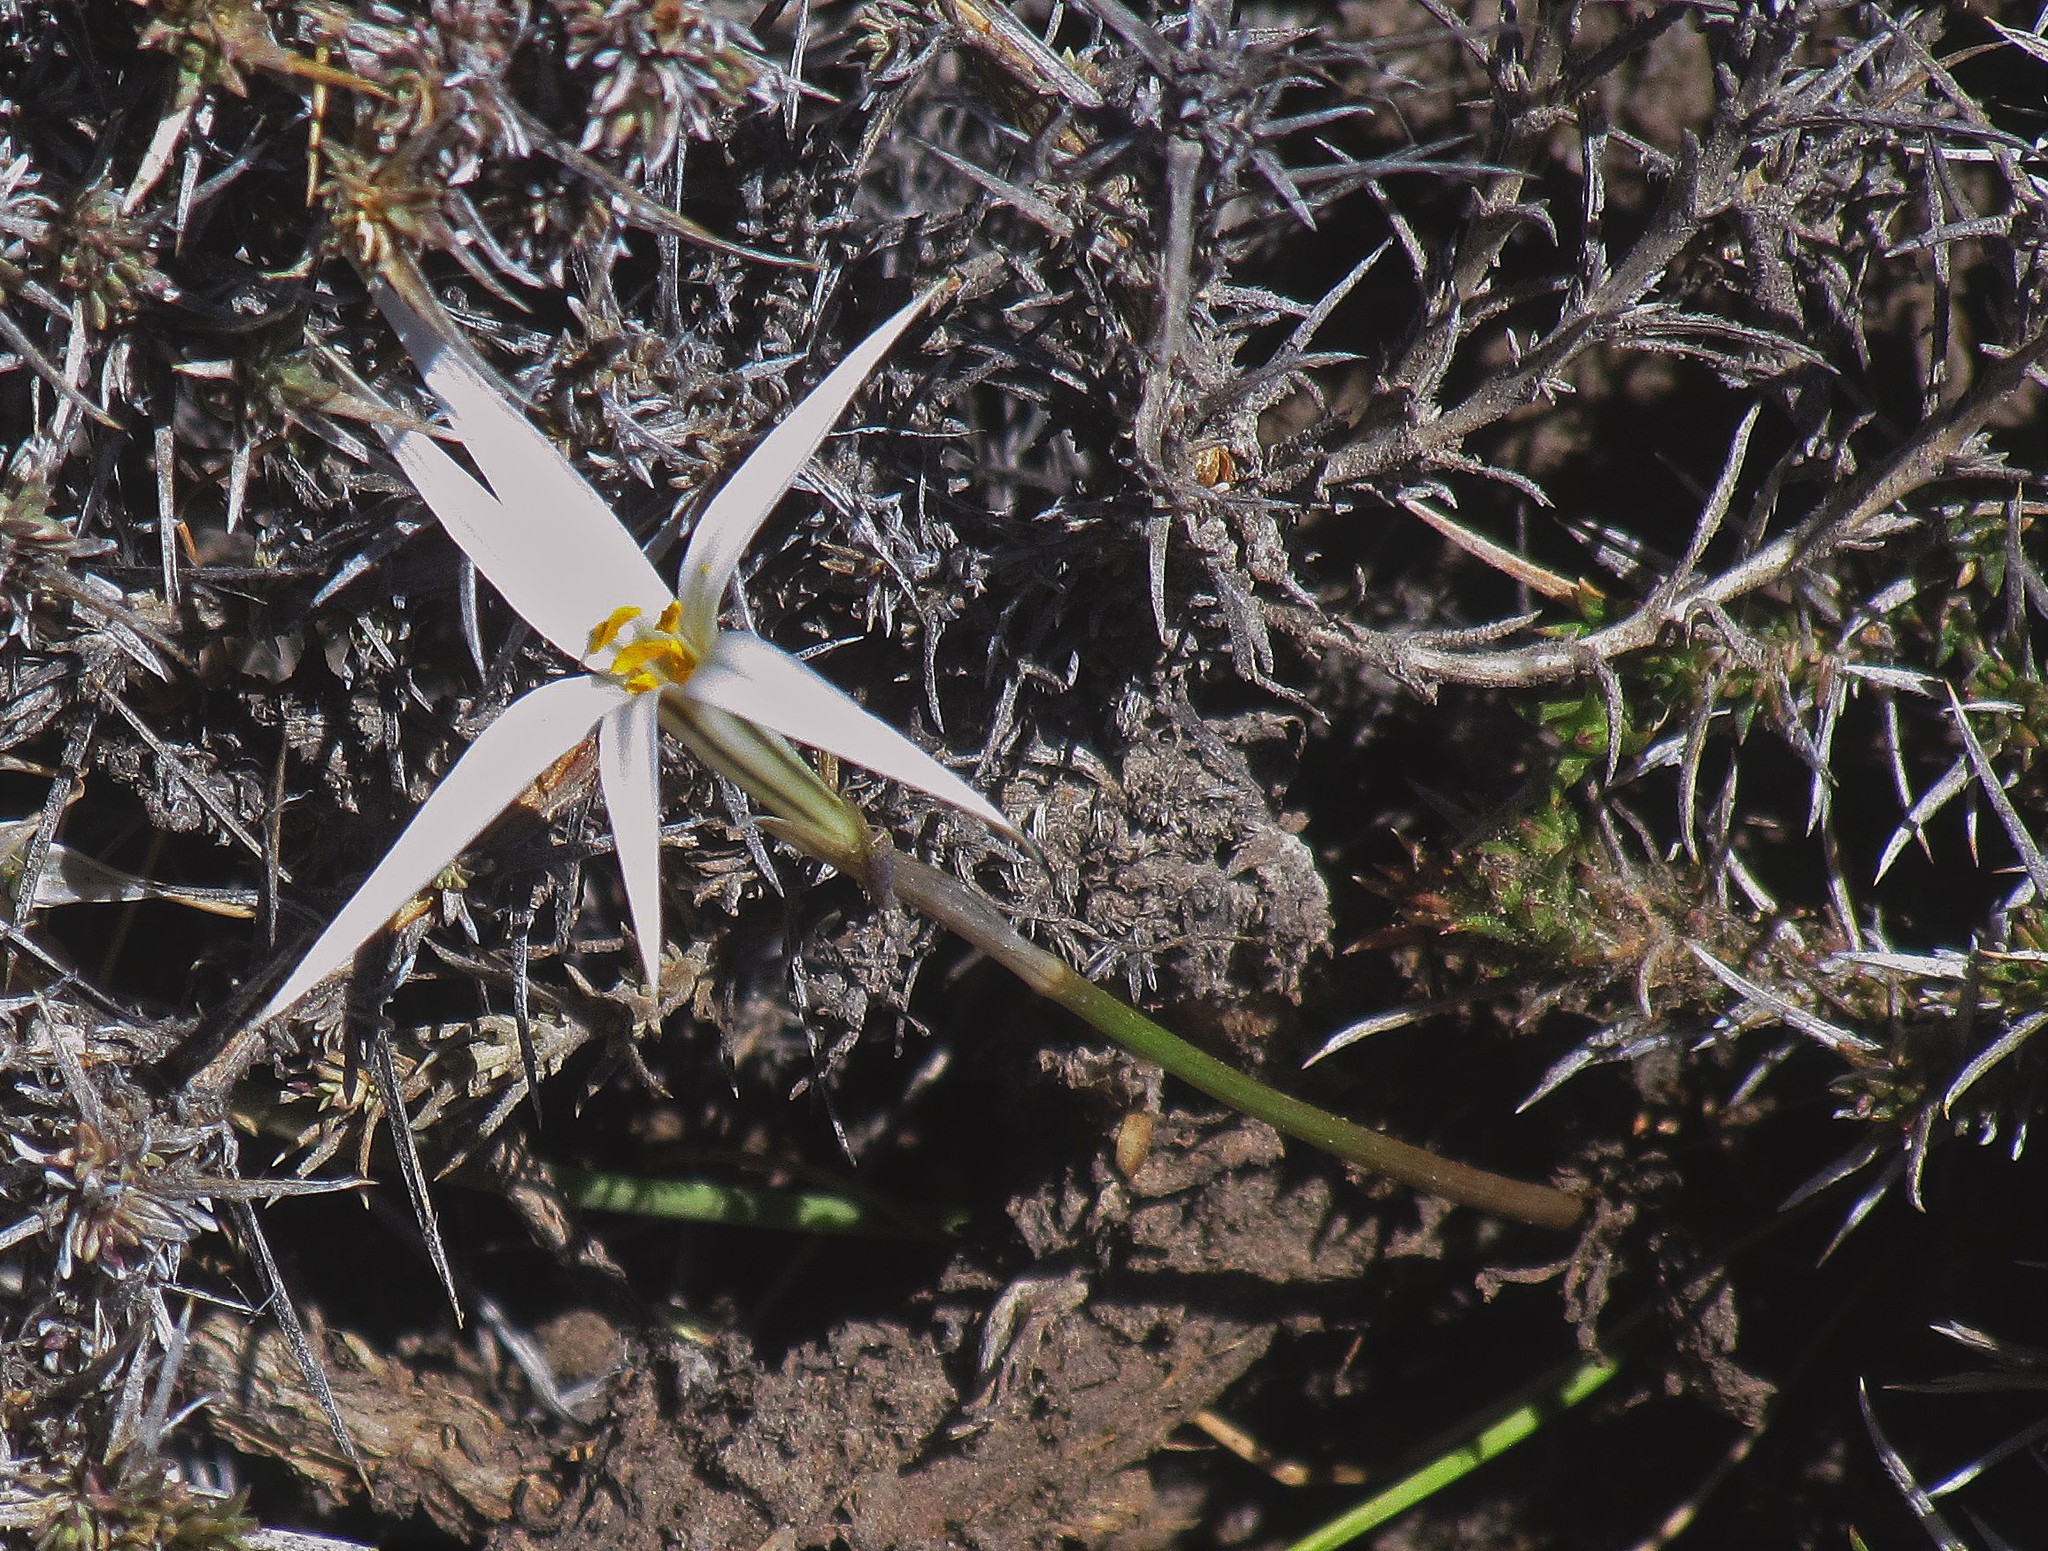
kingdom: Plantae
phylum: Tracheophyta
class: Liliopsida
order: Asparagales
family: Amaryllidaceae
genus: Tristagma
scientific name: Tristagma patagonicum
